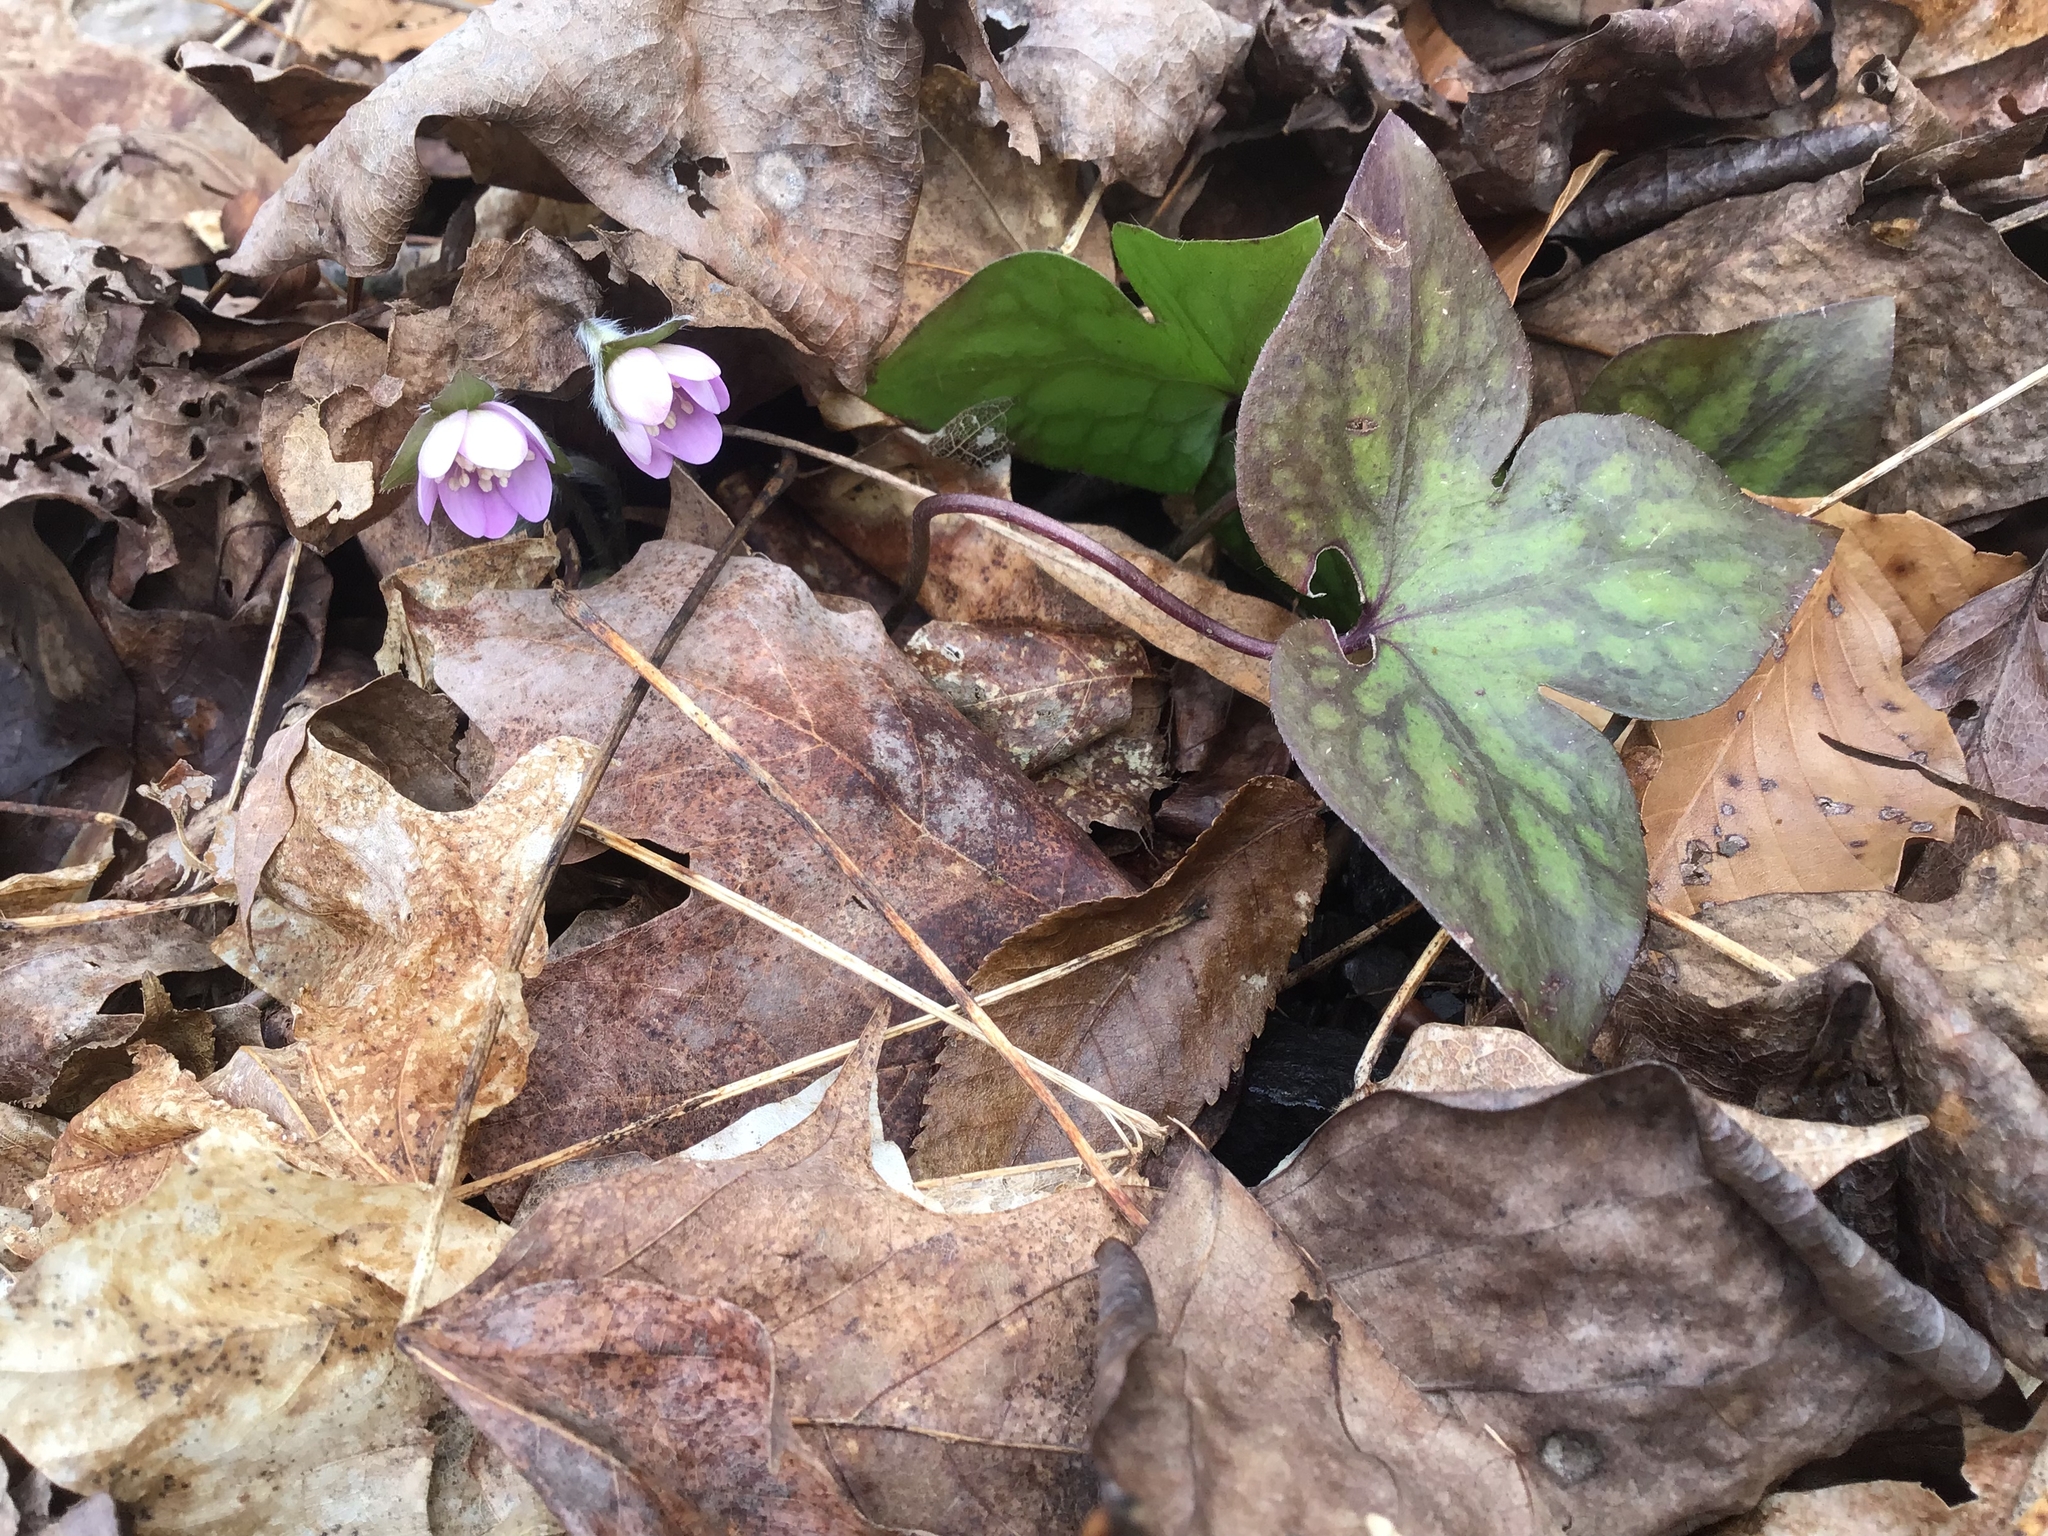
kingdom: Plantae
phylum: Tracheophyta
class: Magnoliopsida
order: Ranunculales
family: Ranunculaceae
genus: Hepatica
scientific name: Hepatica acutiloba
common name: Sharp-lobed hepatica
